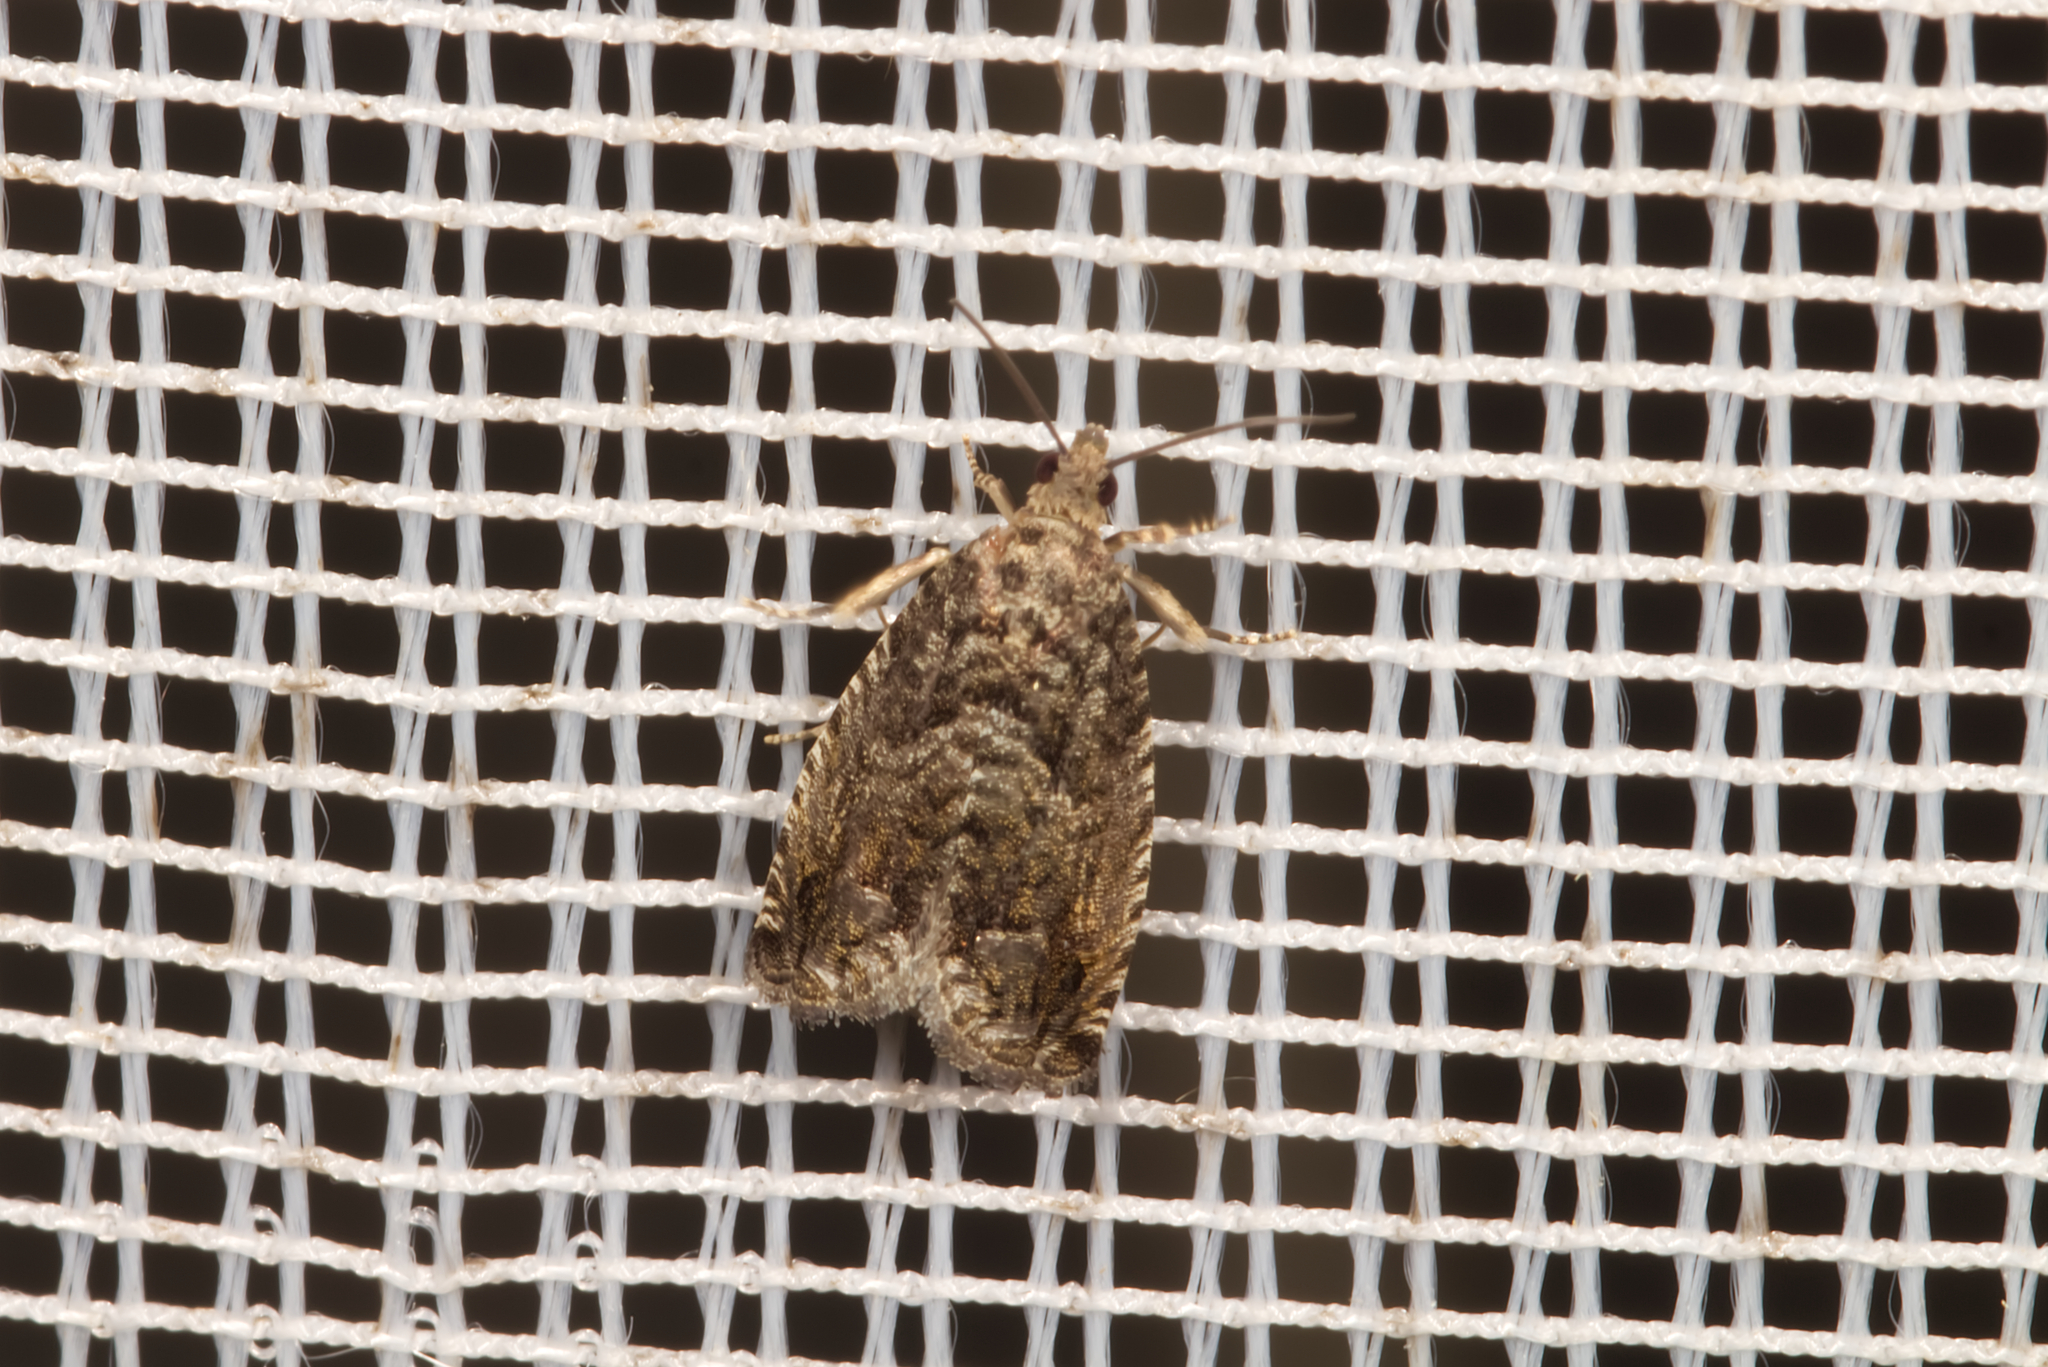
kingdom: Animalia
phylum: Arthropoda
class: Insecta
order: Lepidoptera
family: Tortricidae
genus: Cydia
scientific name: Cydia fagiglandana
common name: Large beech piercer
